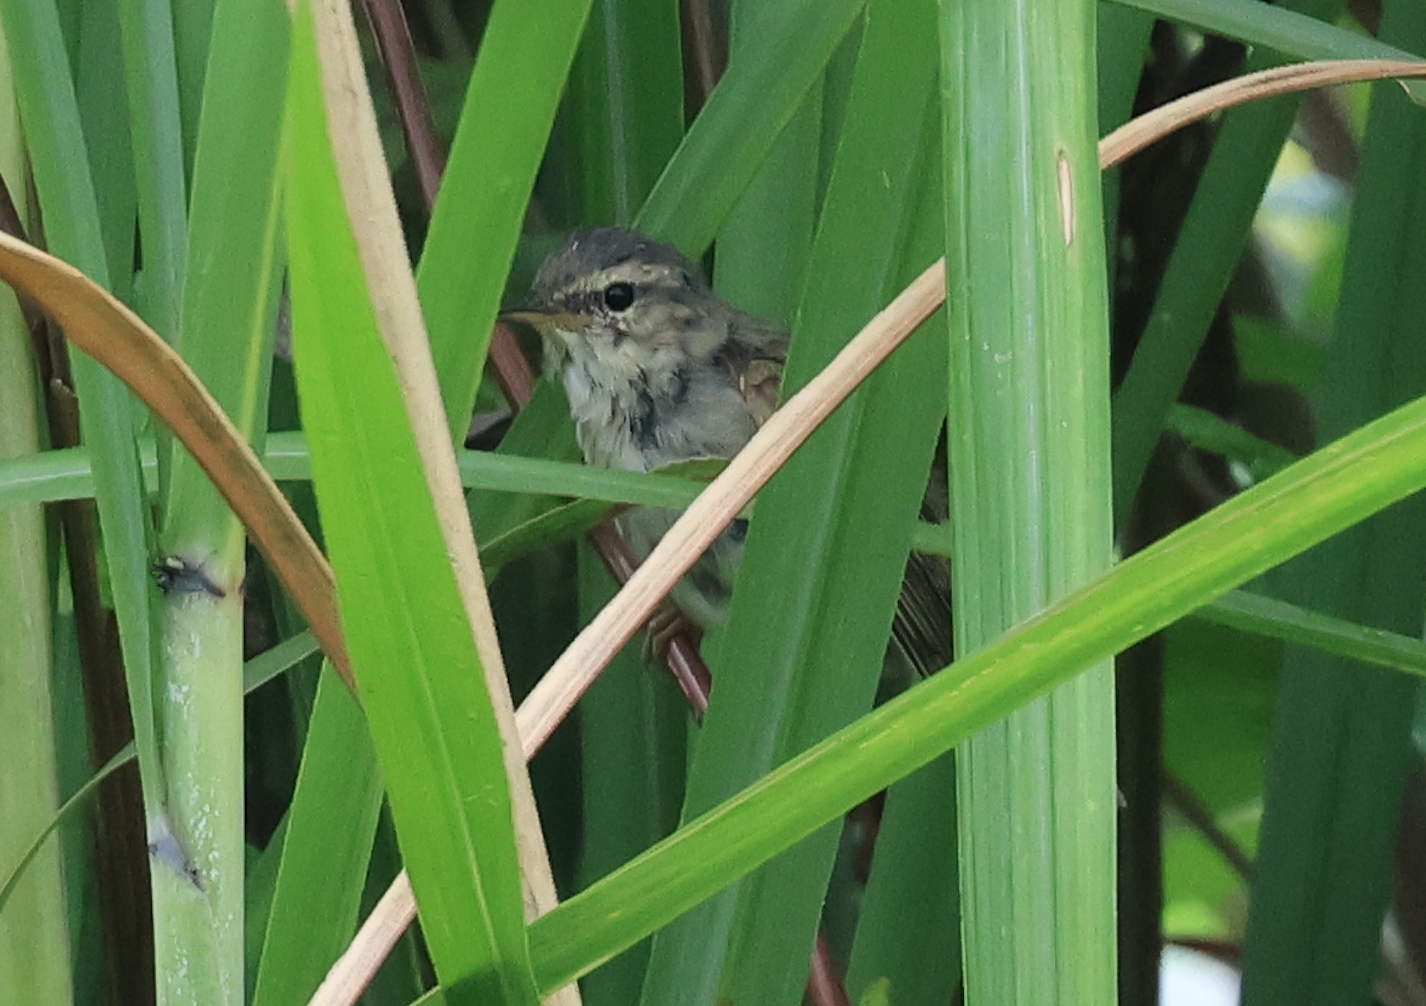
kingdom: Animalia
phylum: Chordata
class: Aves
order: Passeriformes
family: Phylloscopidae
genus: Phylloscopus
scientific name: Phylloscopus fuscatus
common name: Dusky warbler
